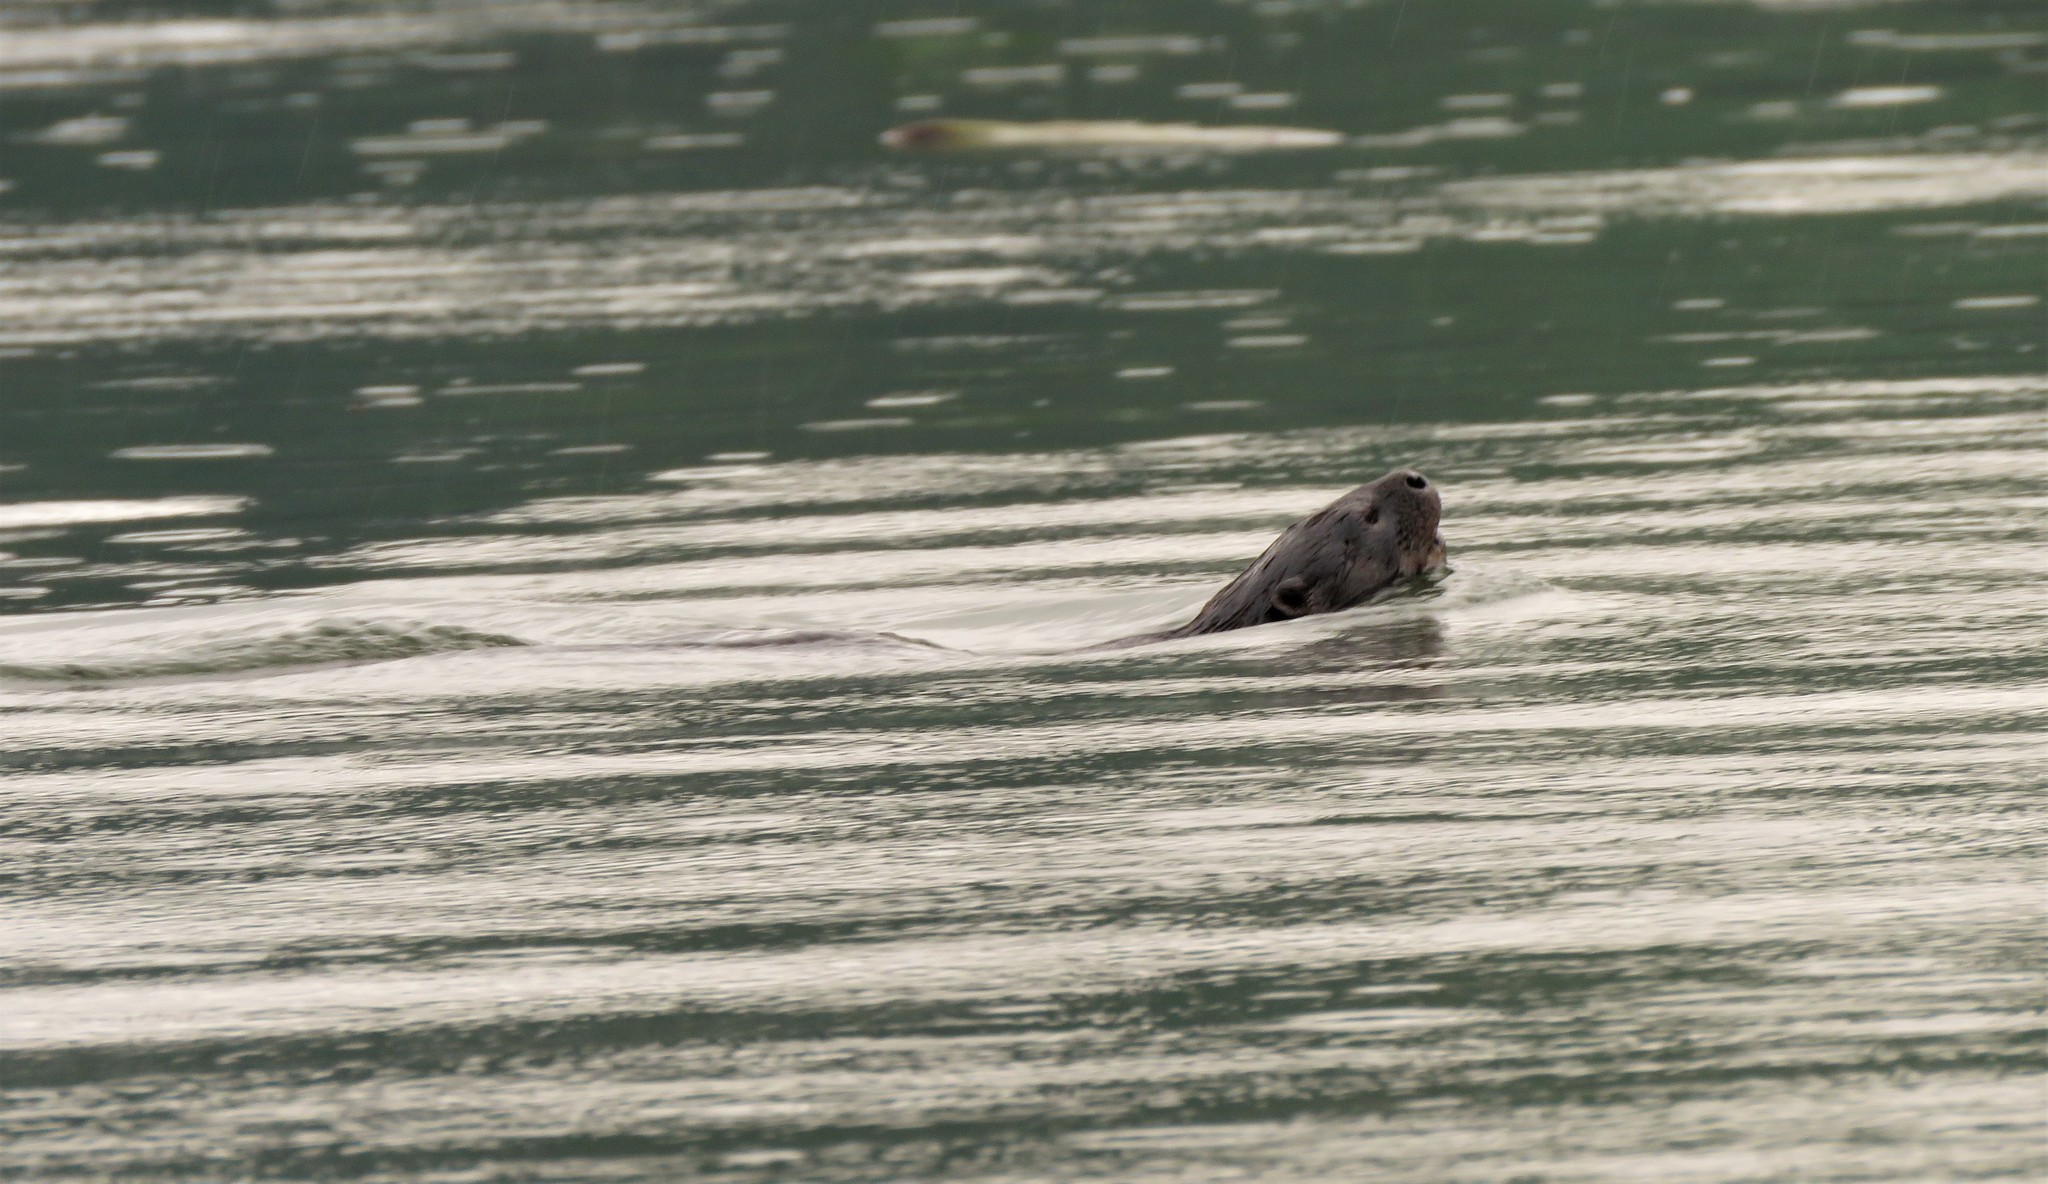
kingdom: Animalia
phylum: Chordata
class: Mammalia
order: Carnivora
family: Mustelidae
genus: Hydrictis
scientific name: Hydrictis maculicollis
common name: Spotted-necked otter
